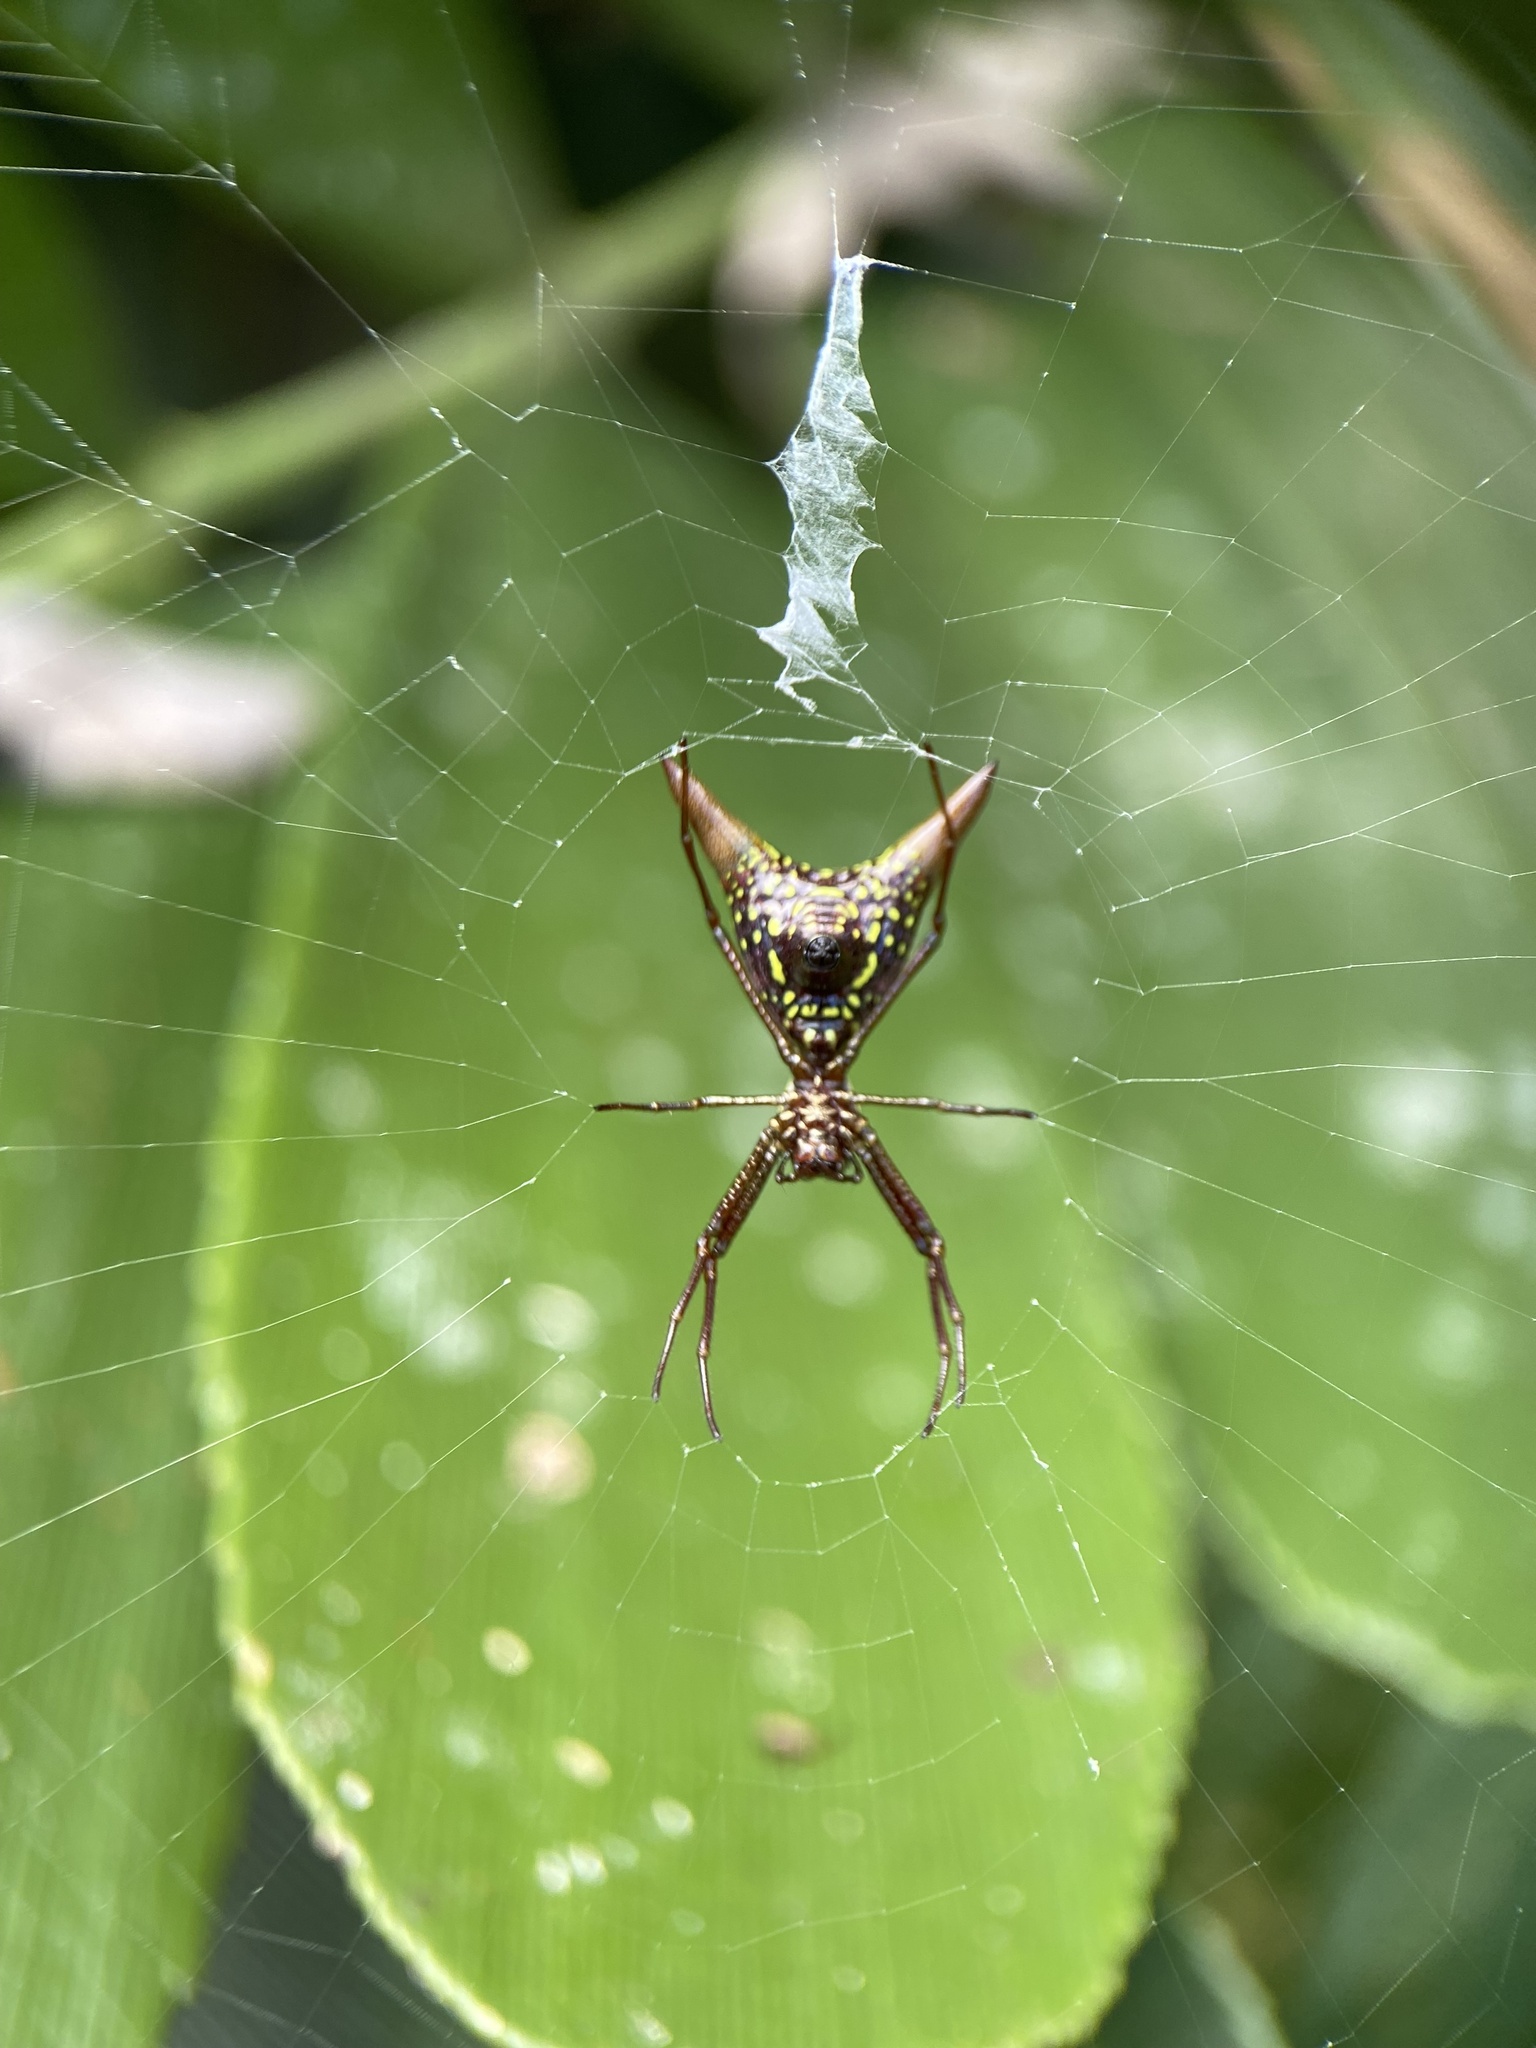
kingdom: Animalia
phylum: Arthropoda
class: Arachnida
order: Araneae
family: Araneidae
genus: Micrathena
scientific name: Micrathena sexspinosa
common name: Orb weavers
